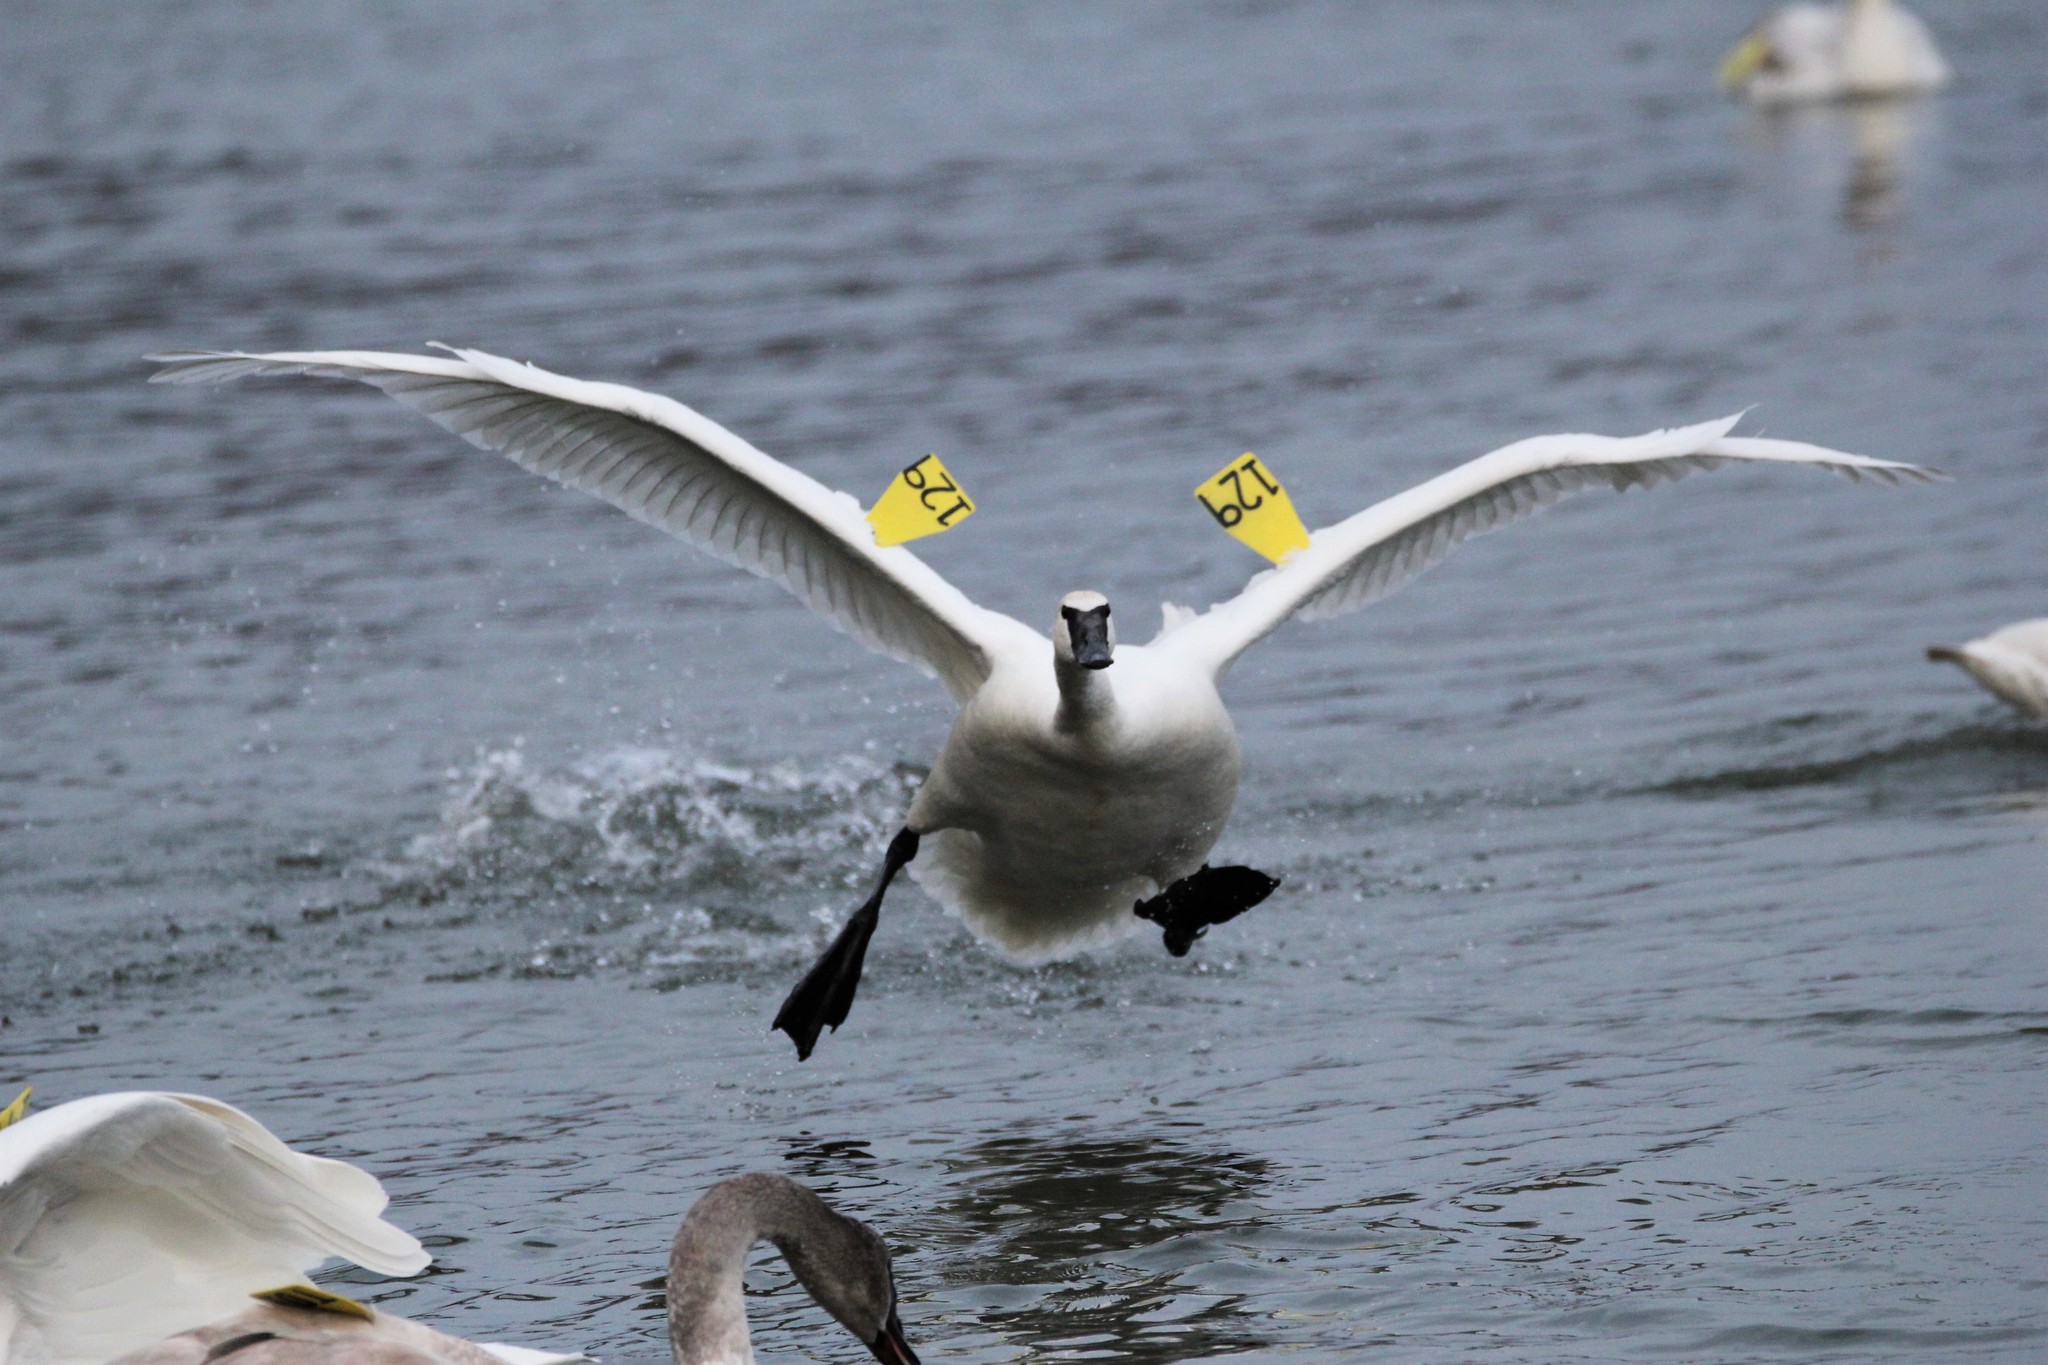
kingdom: Animalia
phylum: Chordata
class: Aves
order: Anseriformes
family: Anatidae
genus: Cygnus
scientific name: Cygnus buccinator
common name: Trumpeter swan
